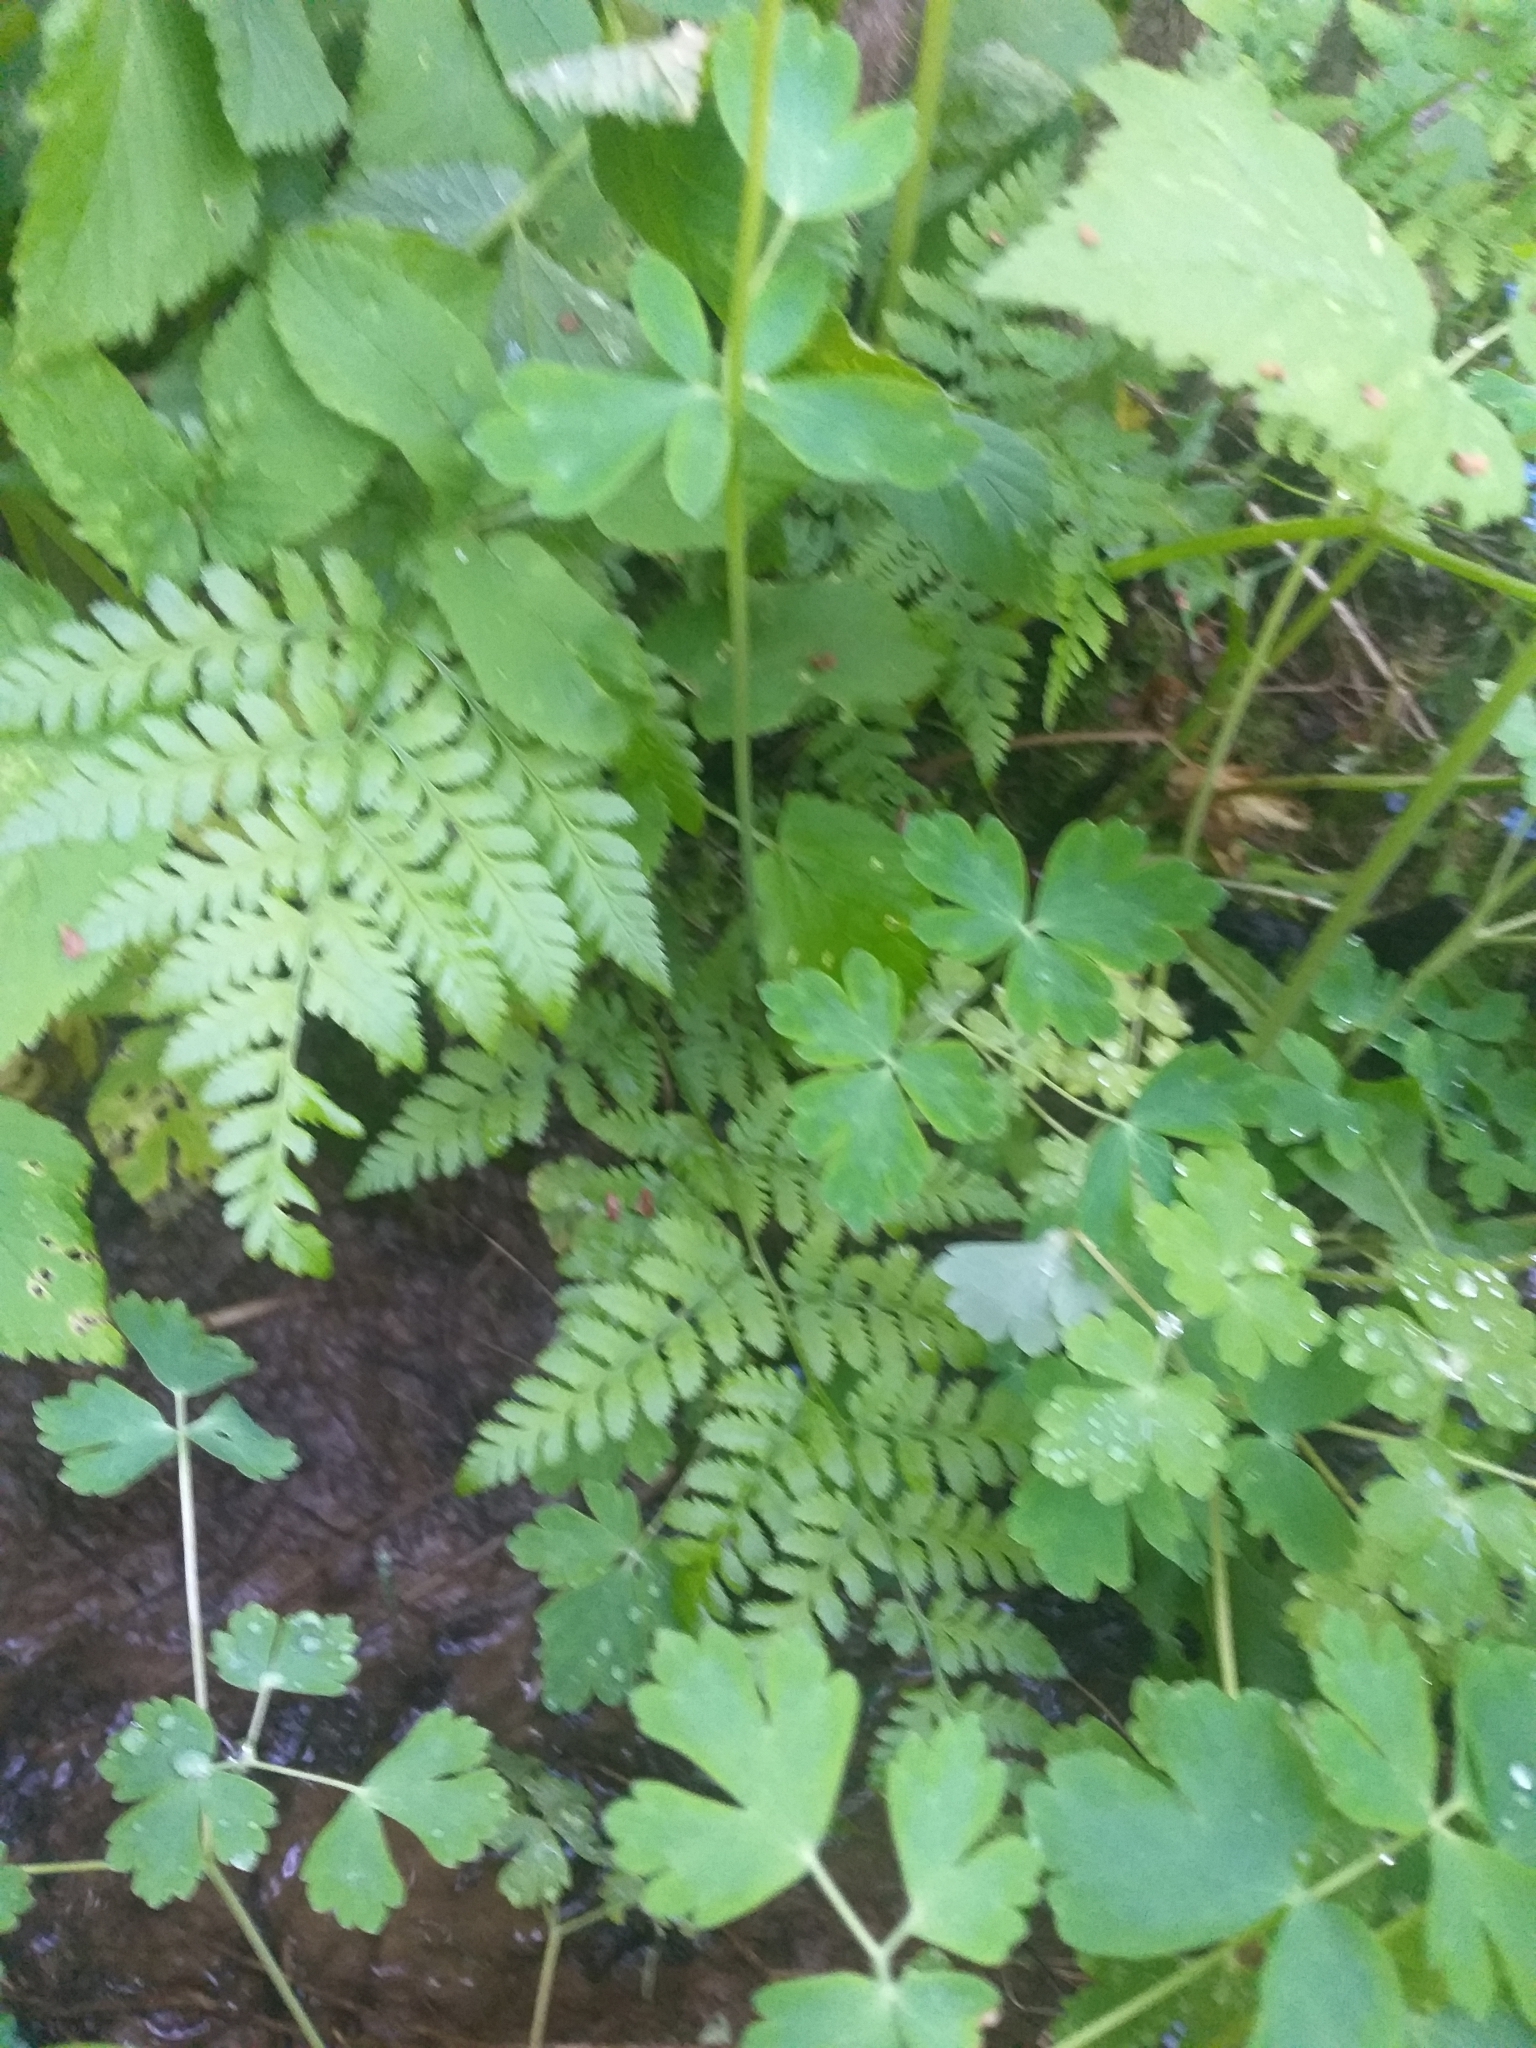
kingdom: Plantae
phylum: Tracheophyta
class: Polypodiopsida
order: Polypodiales
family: Dryopteridaceae
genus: Dryopteris
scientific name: Dryopteris carthusiana
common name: Narrow buckler-fern
